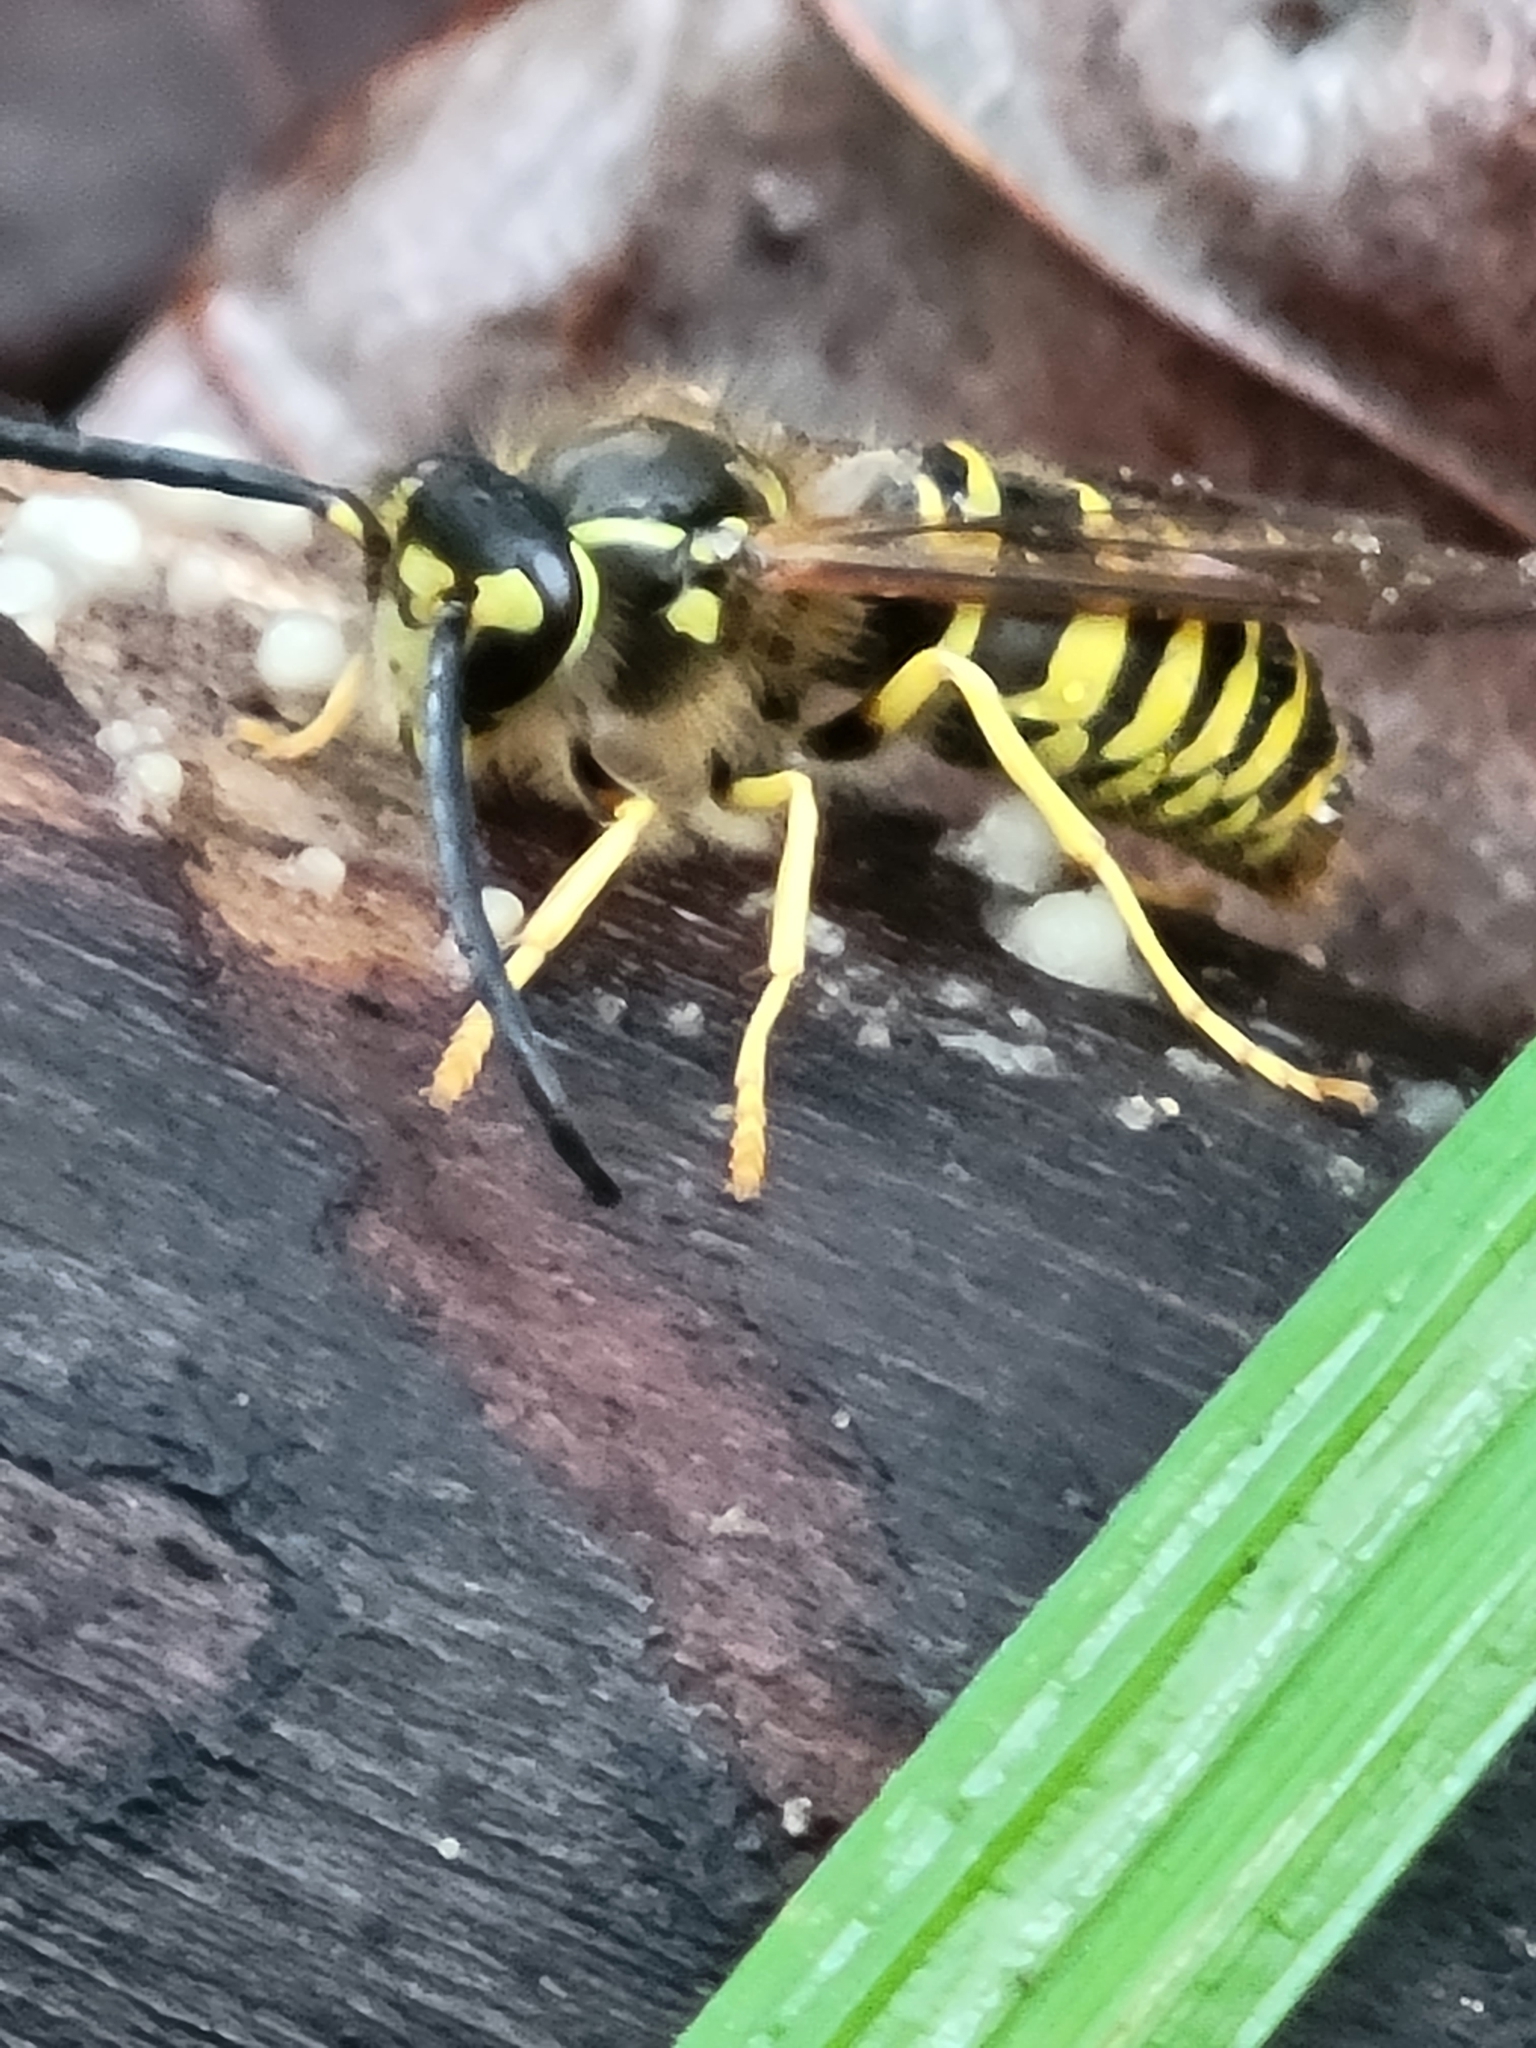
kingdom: Animalia
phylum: Arthropoda
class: Insecta
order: Hymenoptera
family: Vespidae
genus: Vespula
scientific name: Vespula maculifrons
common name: Eastern yellowjacket
